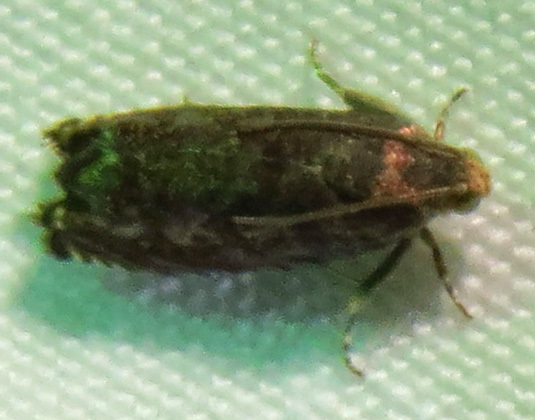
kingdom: Animalia
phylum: Arthropoda
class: Insecta
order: Lepidoptera
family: Tortricidae
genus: Cydia
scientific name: Cydia caryana
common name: Hickory shuckworm moth
